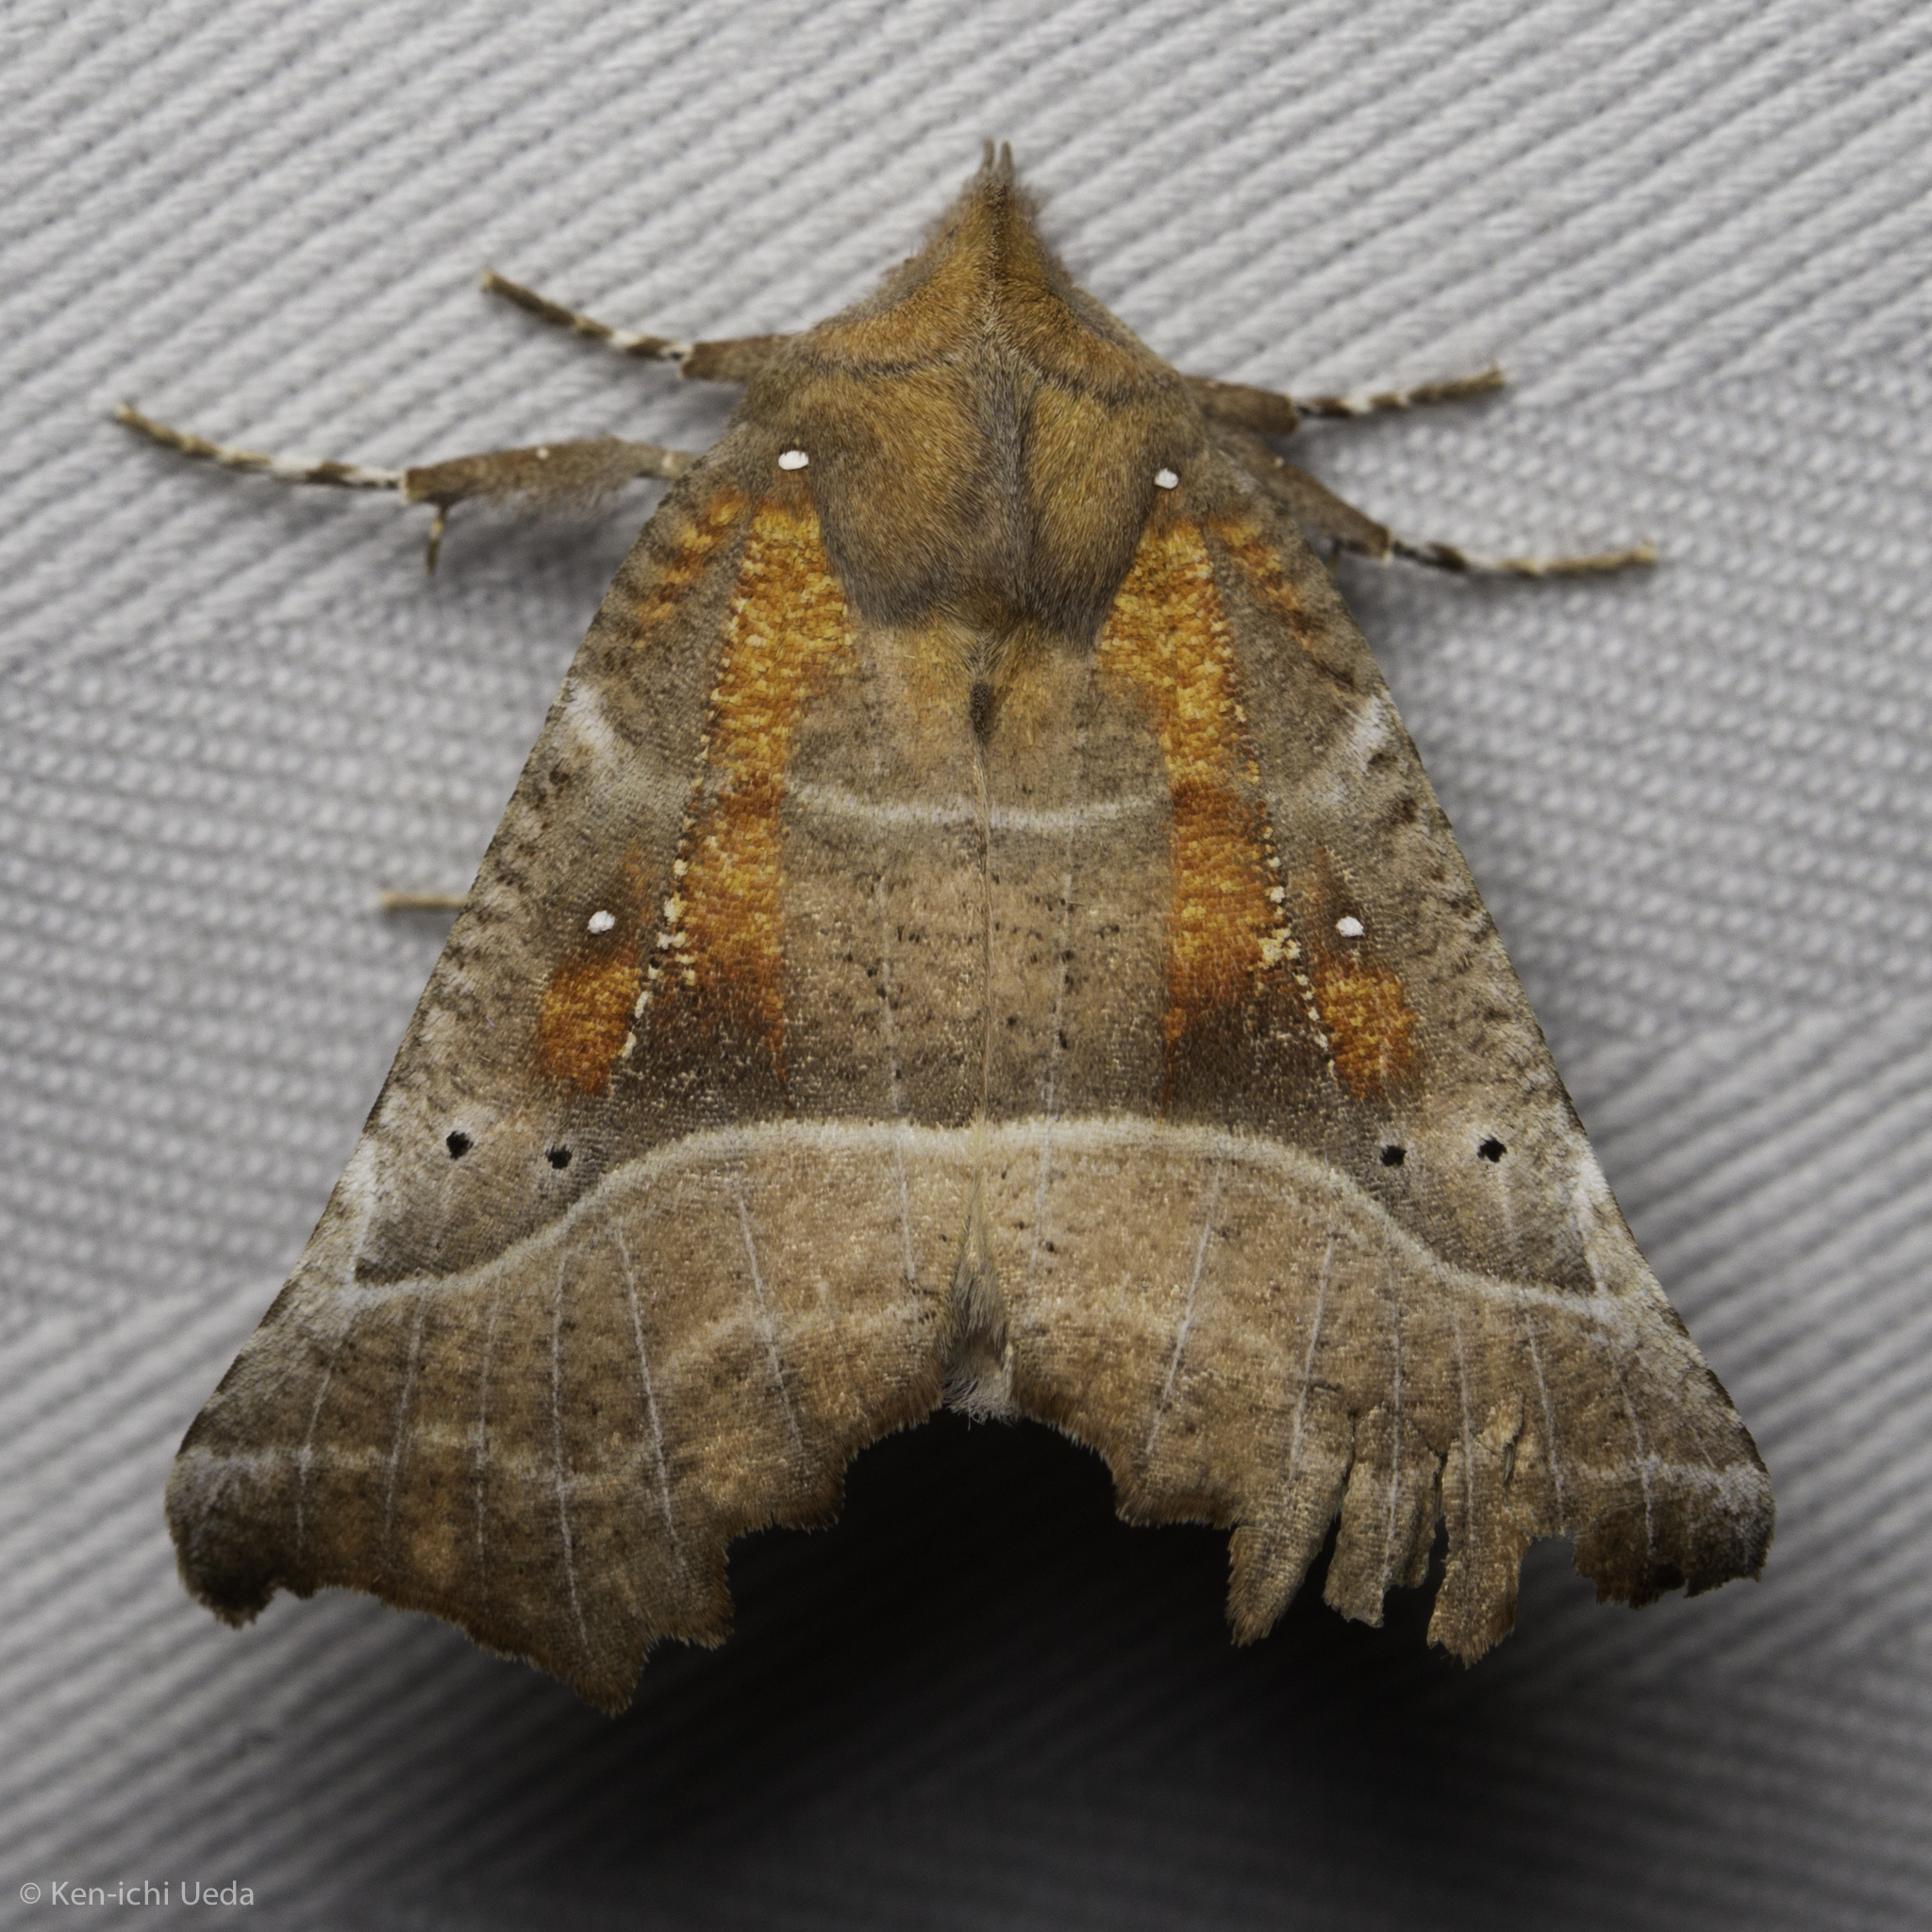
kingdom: Animalia
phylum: Arthropoda
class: Insecta
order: Lepidoptera
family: Erebidae
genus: Scoliopteryx
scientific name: Scoliopteryx libatrix
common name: Herald
